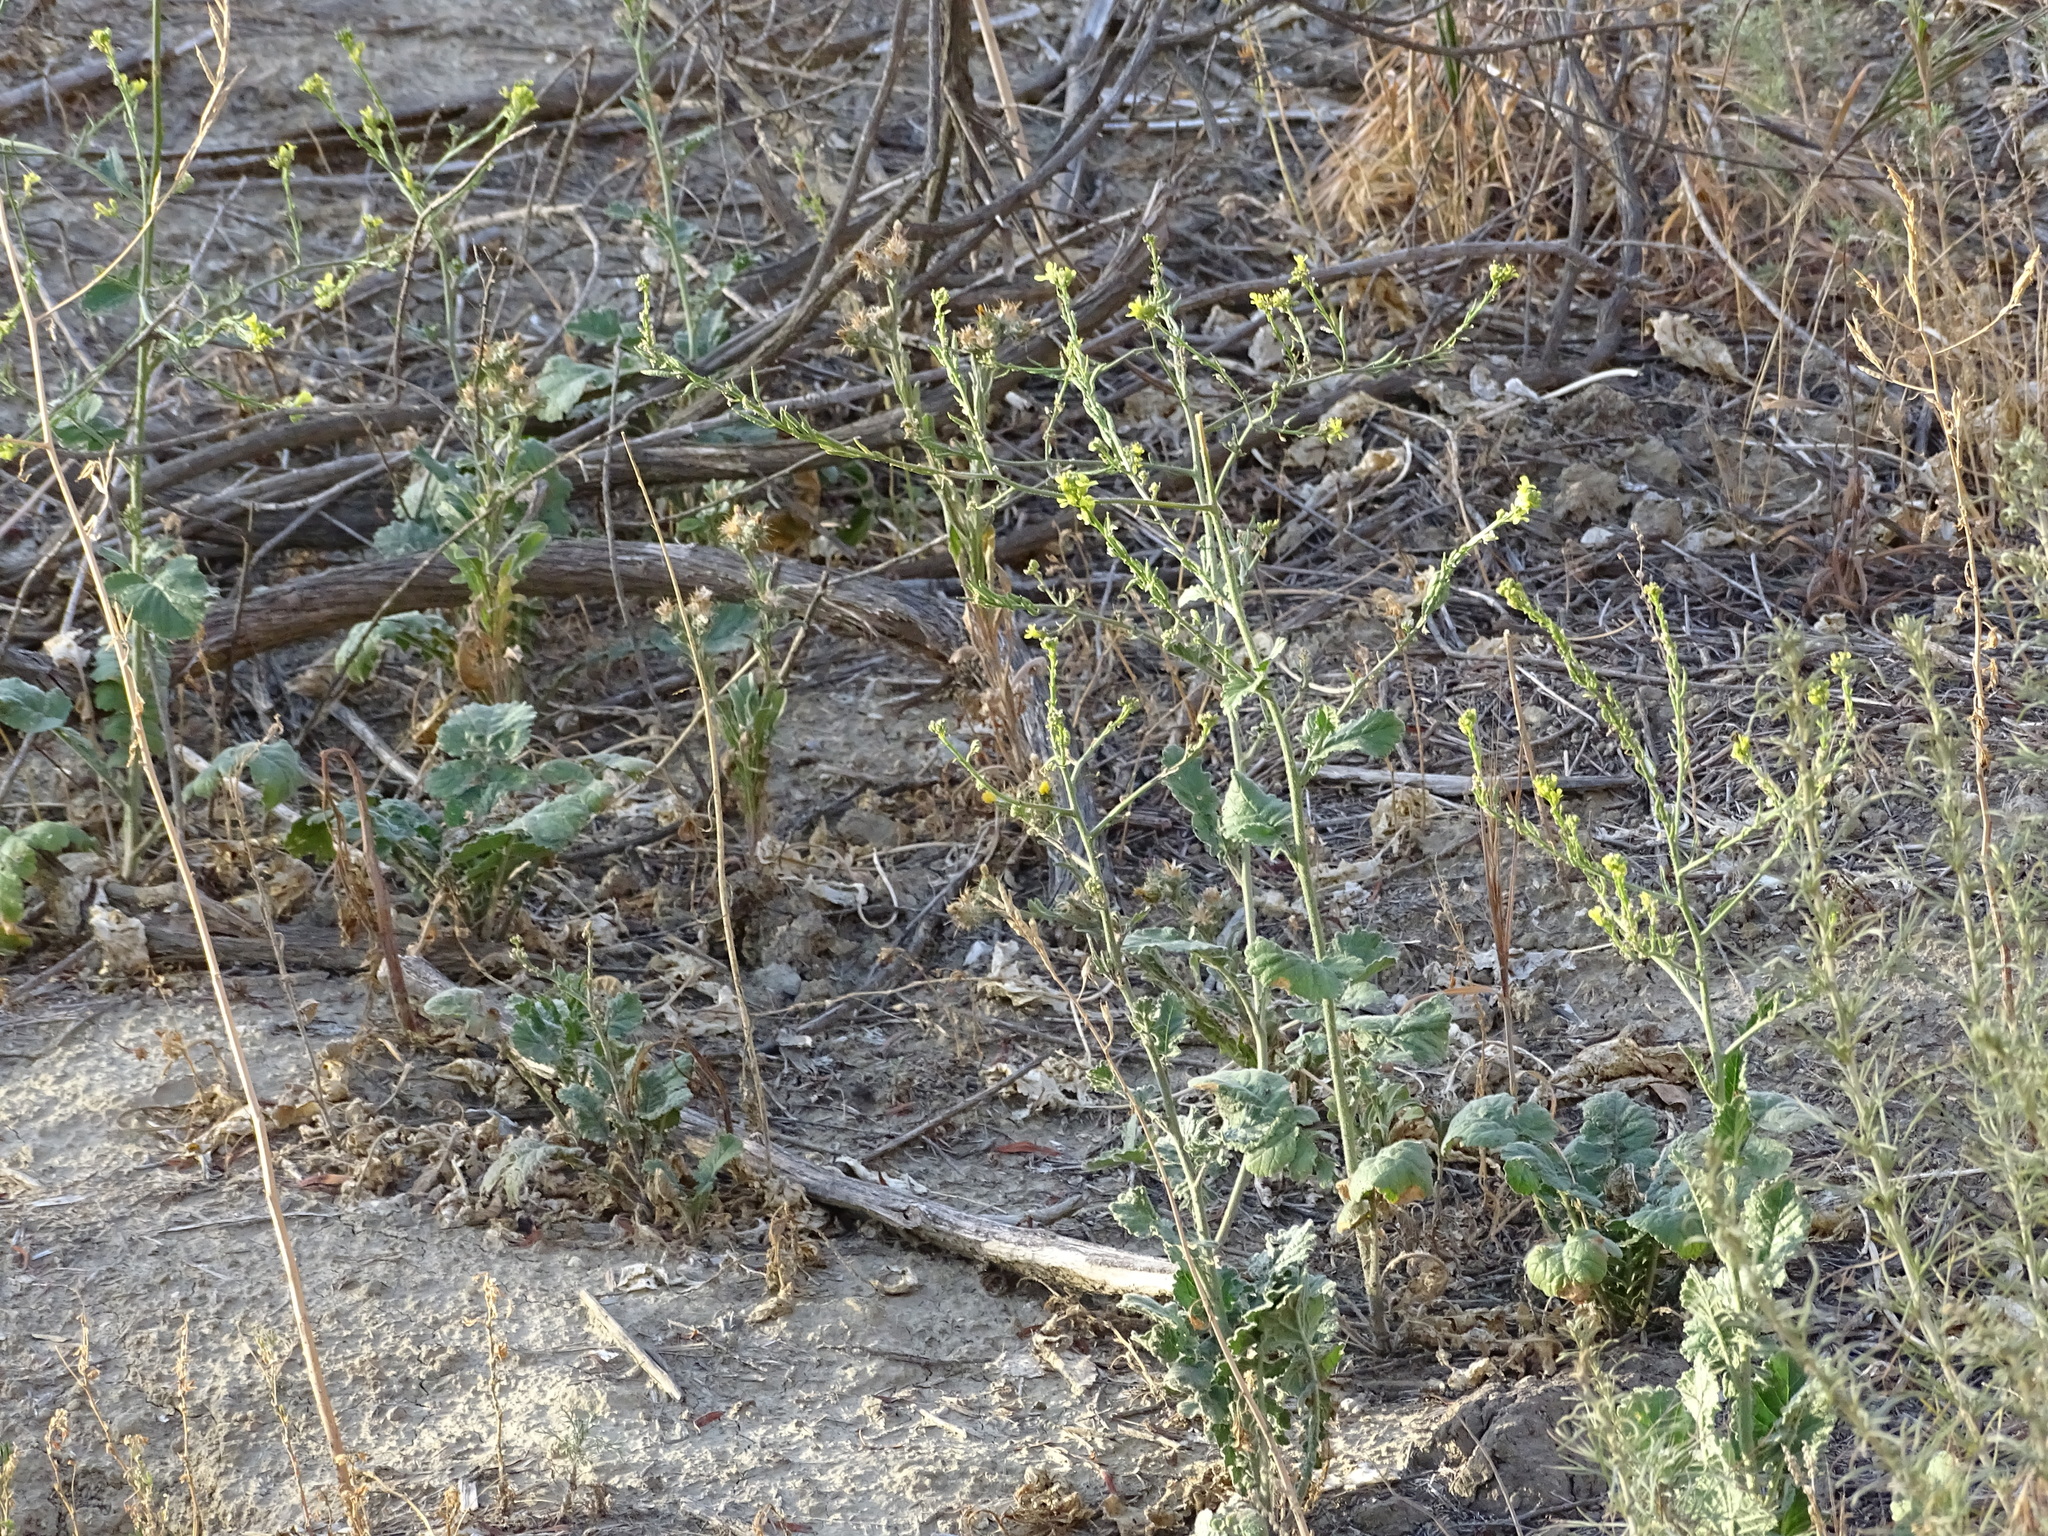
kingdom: Plantae
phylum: Tracheophyta
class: Magnoliopsida
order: Brassicales
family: Brassicaceae
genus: Hirschfeldia
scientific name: Hirschfeldia incana
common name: Hoary mustard
